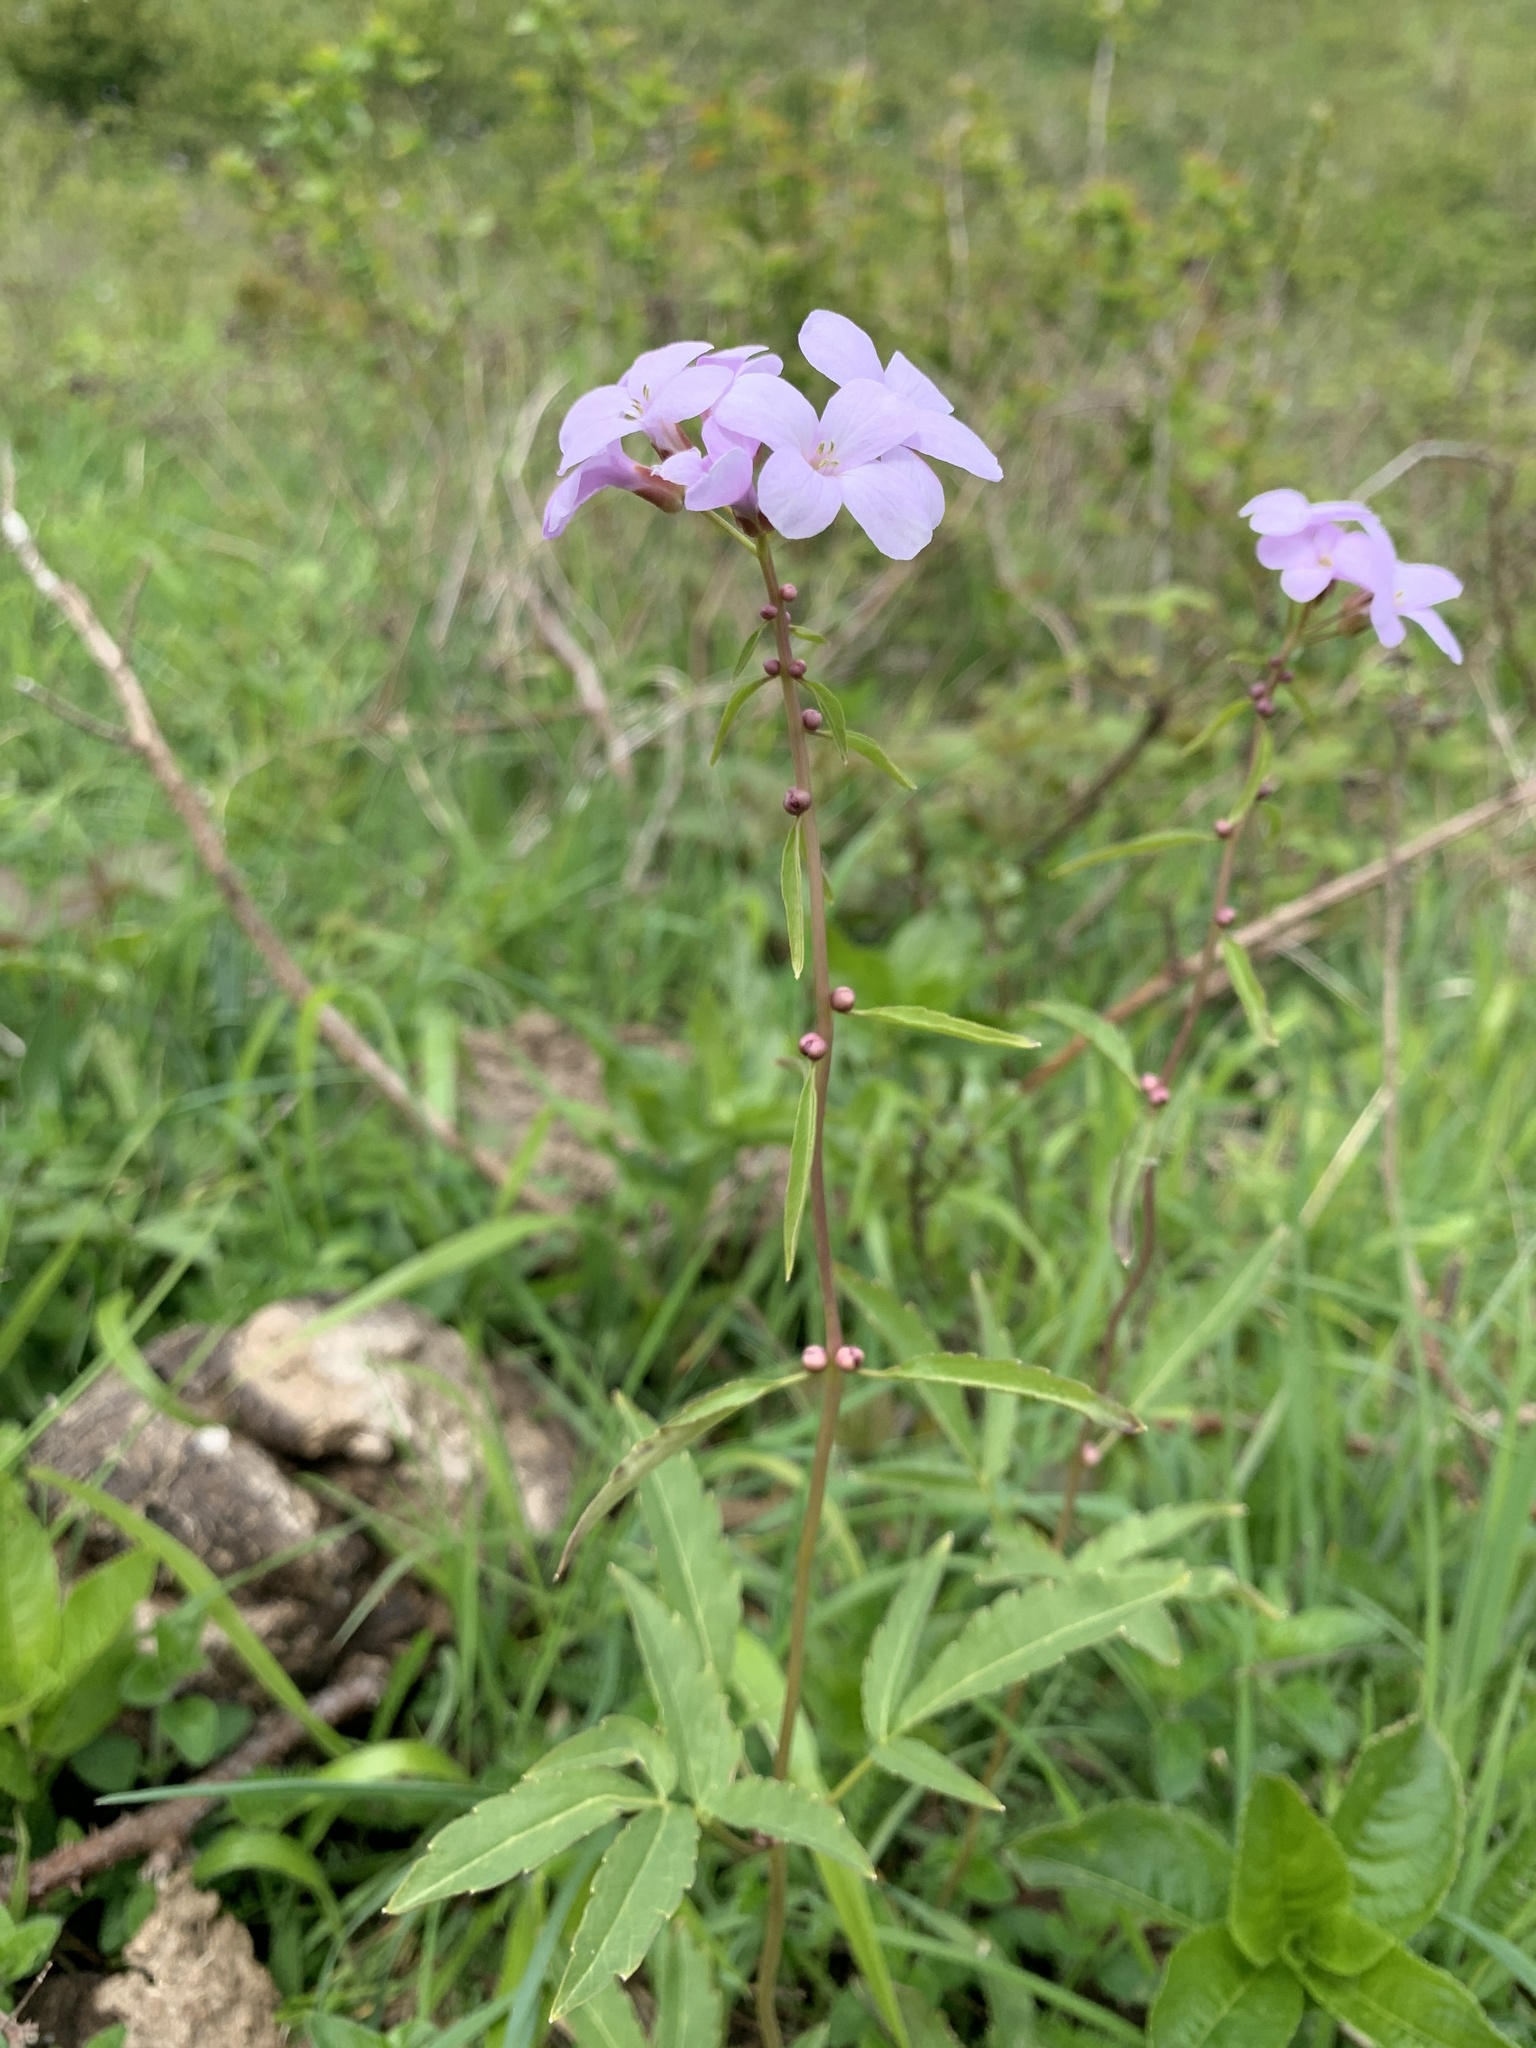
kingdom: Plantae
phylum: Tracheophyta
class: Magnoliopsida
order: Brassicales
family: Brassicaceae
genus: Cardamine
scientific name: Cardamine bulbifera
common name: Coralroot bittercress
